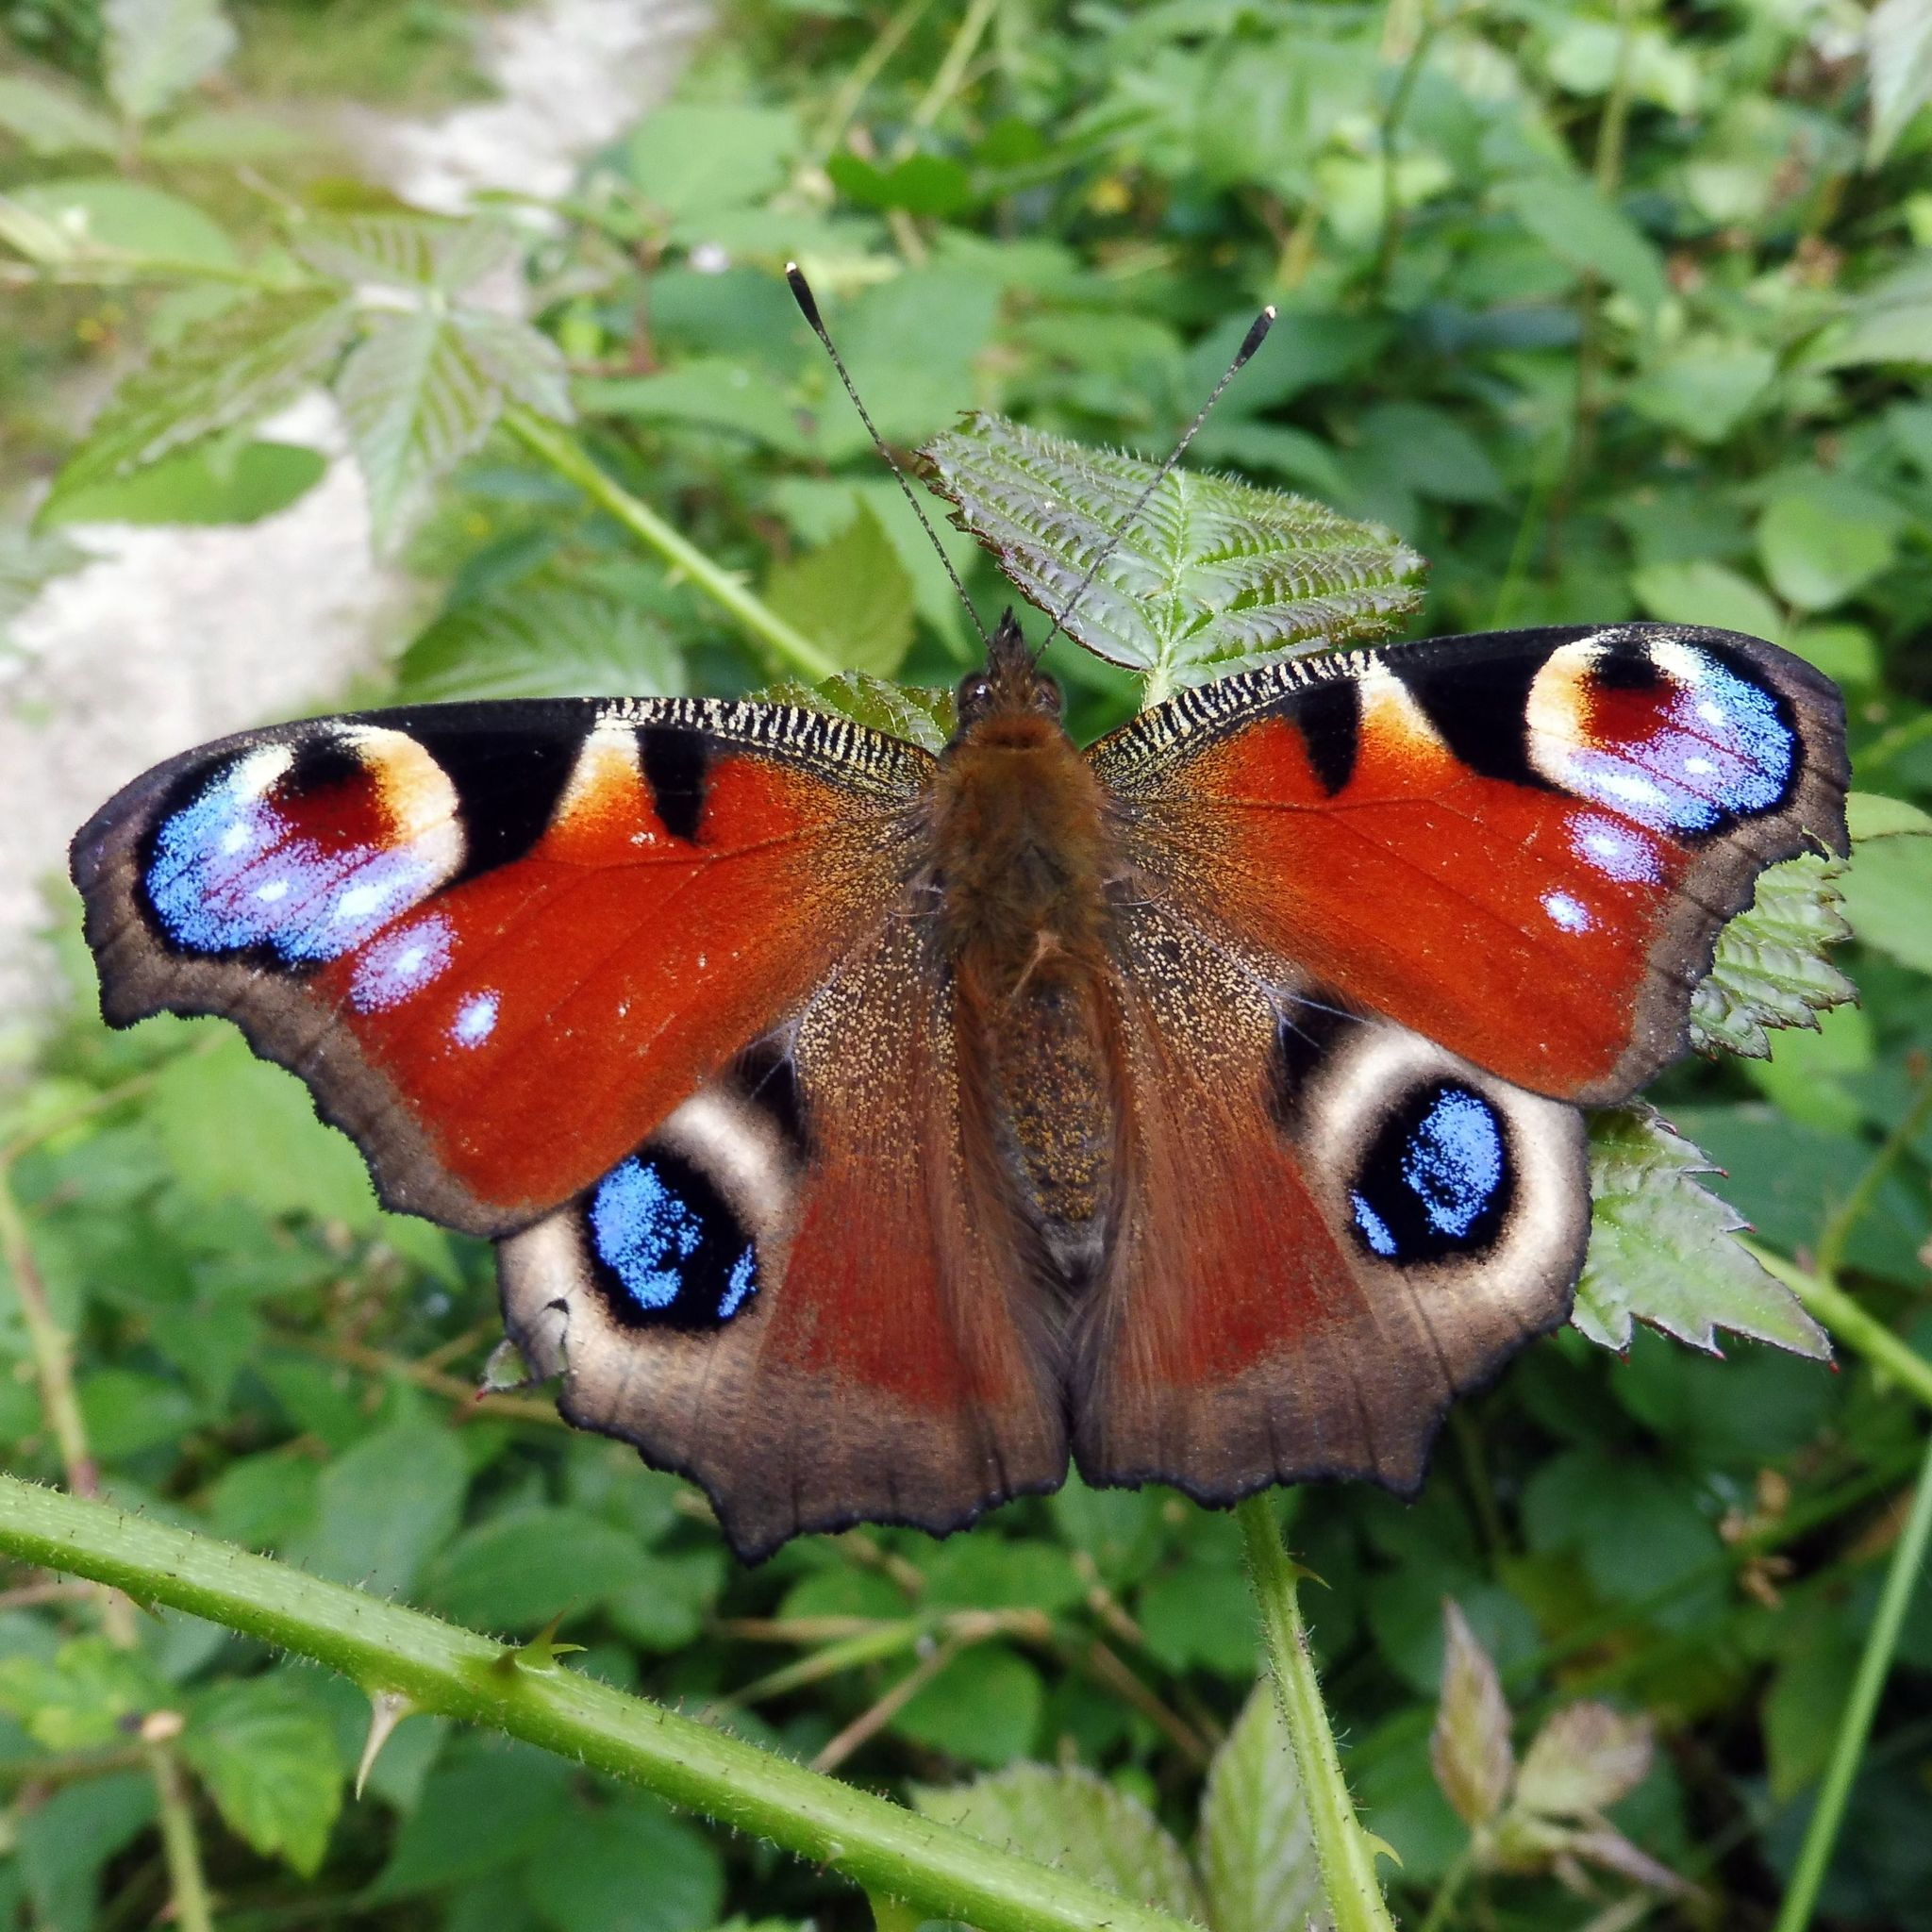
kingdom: Animalia
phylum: Arthropoda
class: Insecta
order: Lepidoptera
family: Nymphalidae
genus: Aglais
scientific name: Aglais io
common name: Peacock
